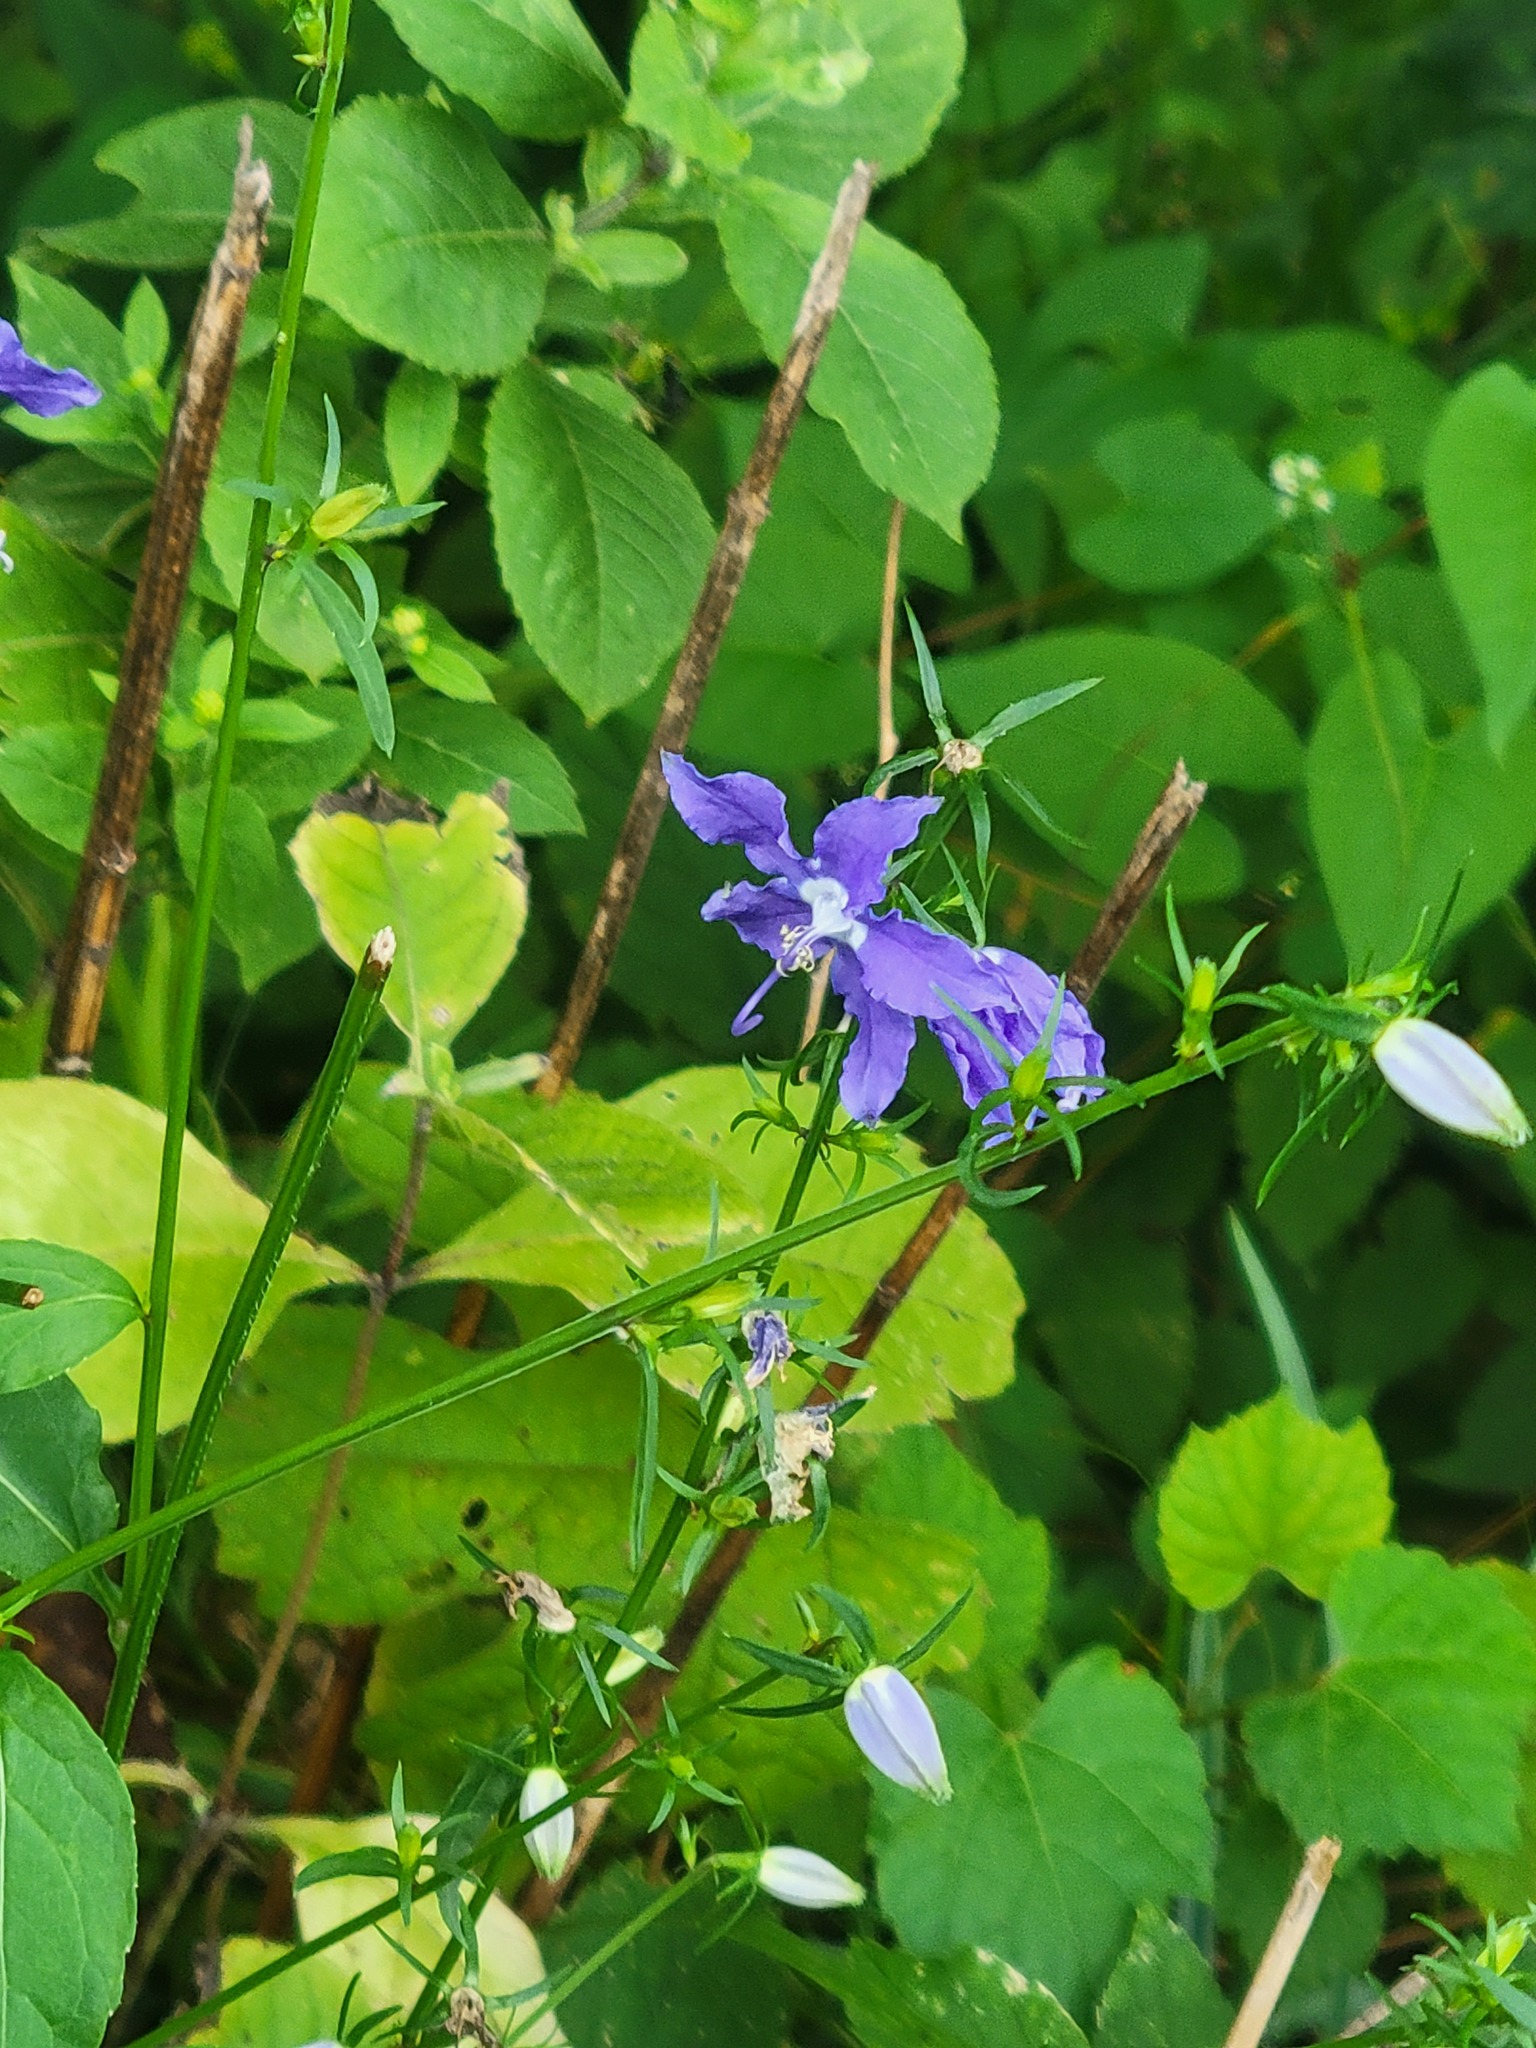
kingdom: Plantae
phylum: Tracheophyta
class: Magnoliopsida
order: Asterales
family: Campanulaceae
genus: Campanulastrum
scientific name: Campanulastrum americanum
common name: American bellflower
